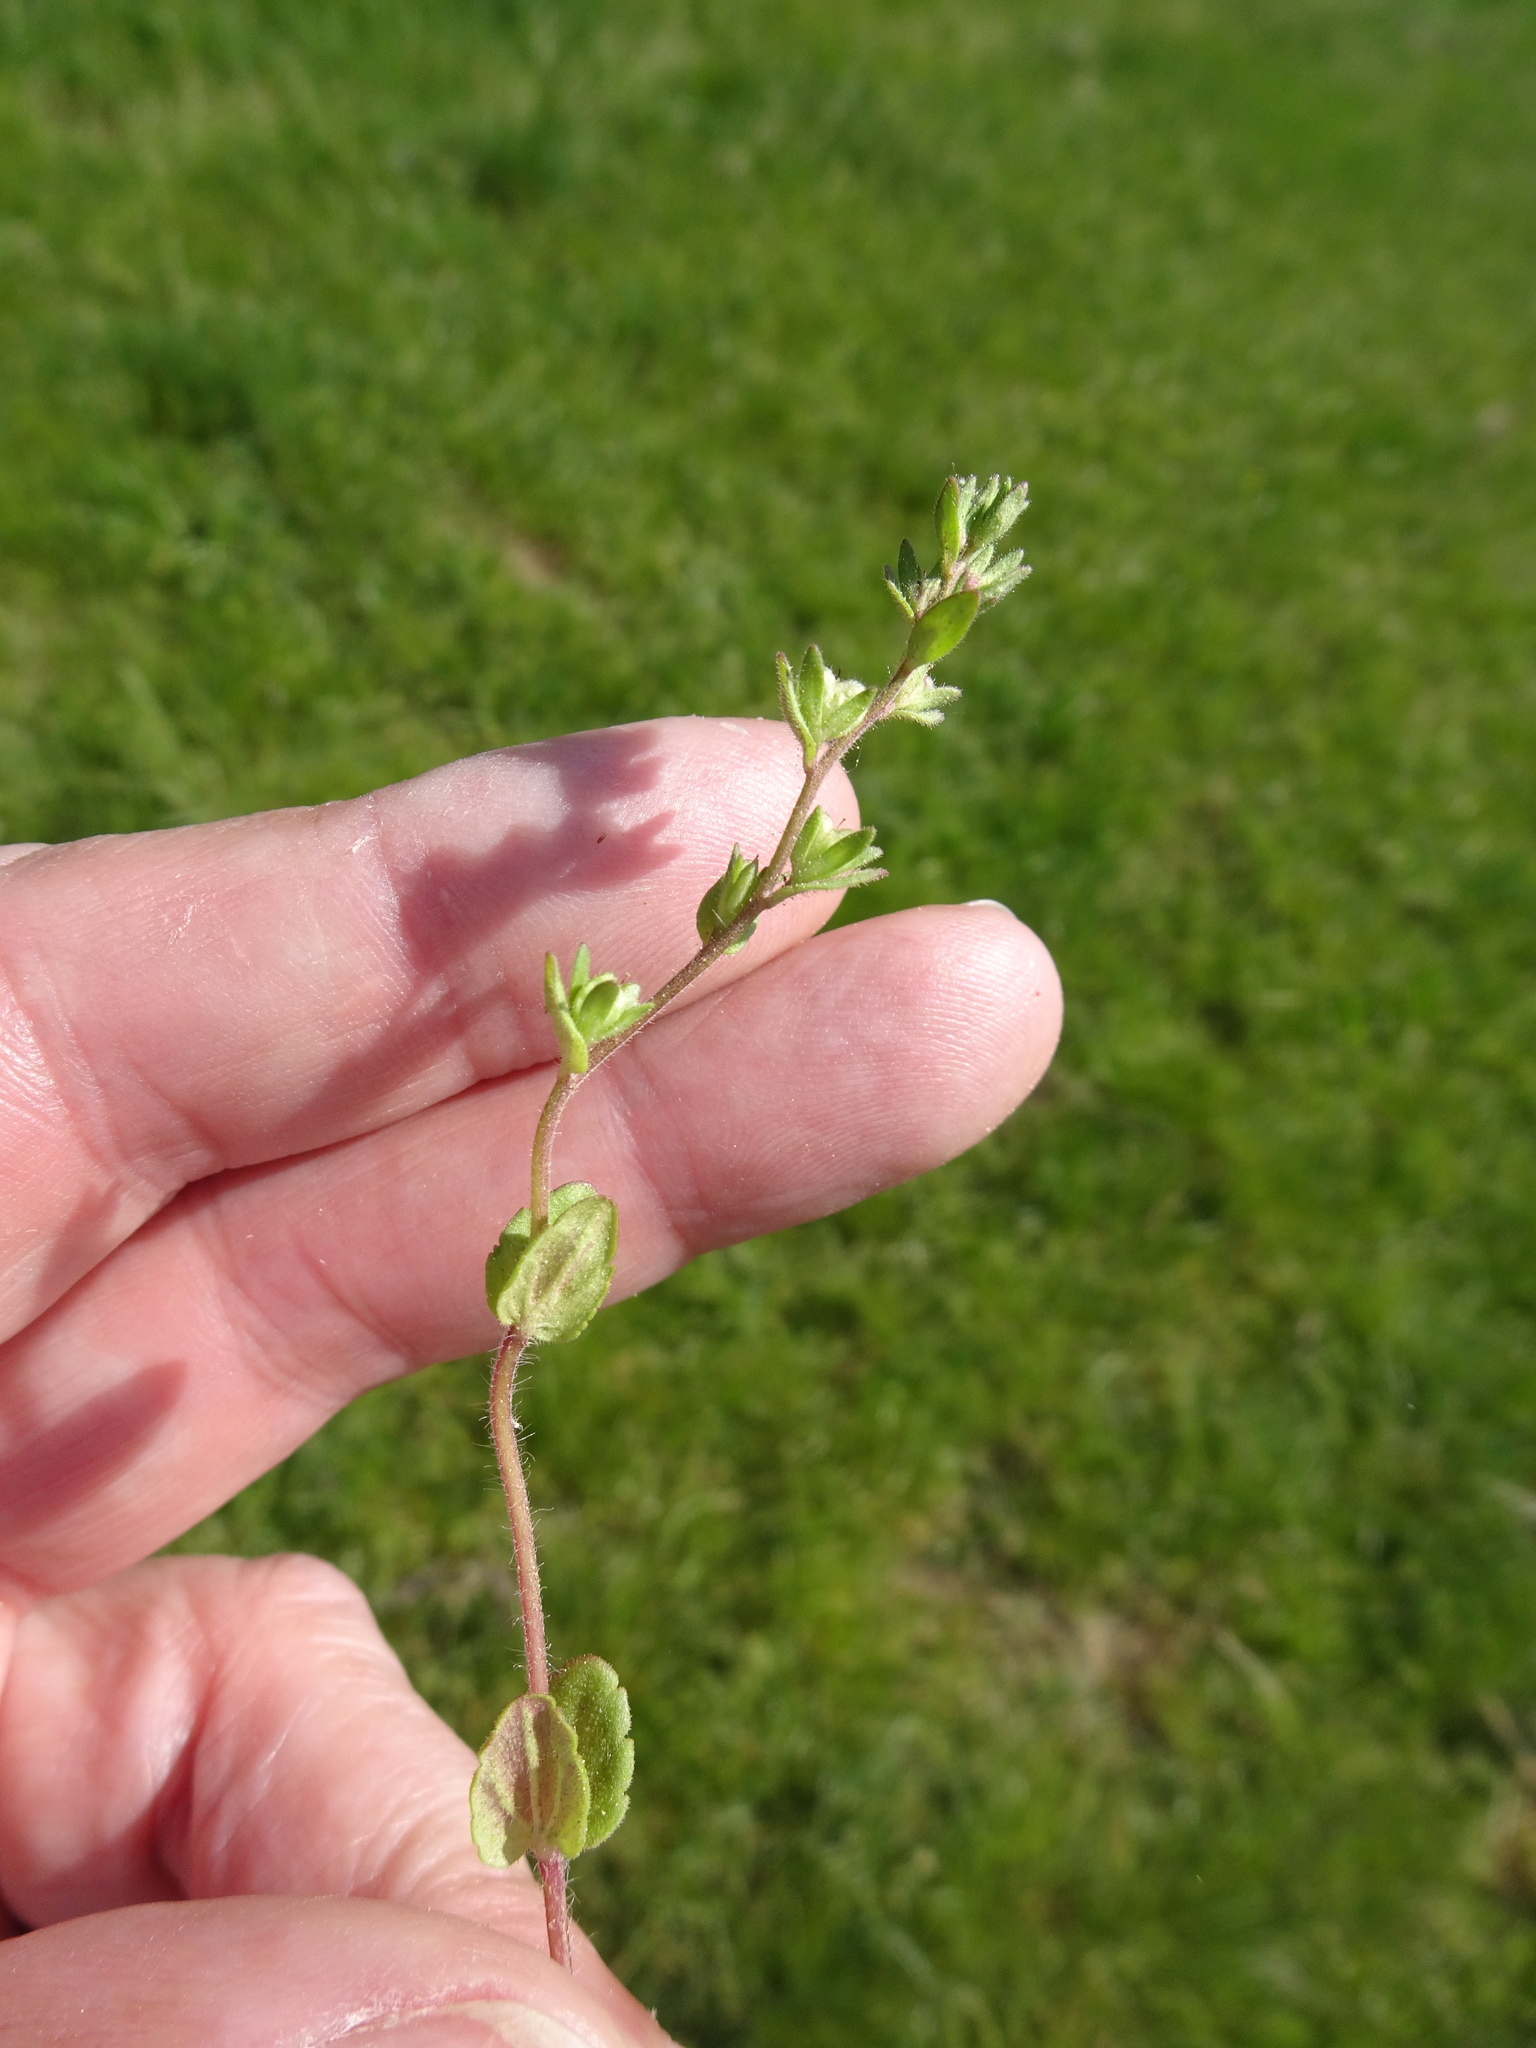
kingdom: Plantae
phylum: Tracheophyta
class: Magnoliopsida
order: Lamiales
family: Plantaginaceae
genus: Veronica
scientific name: Veronica arvensis
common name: Corn speedwell
